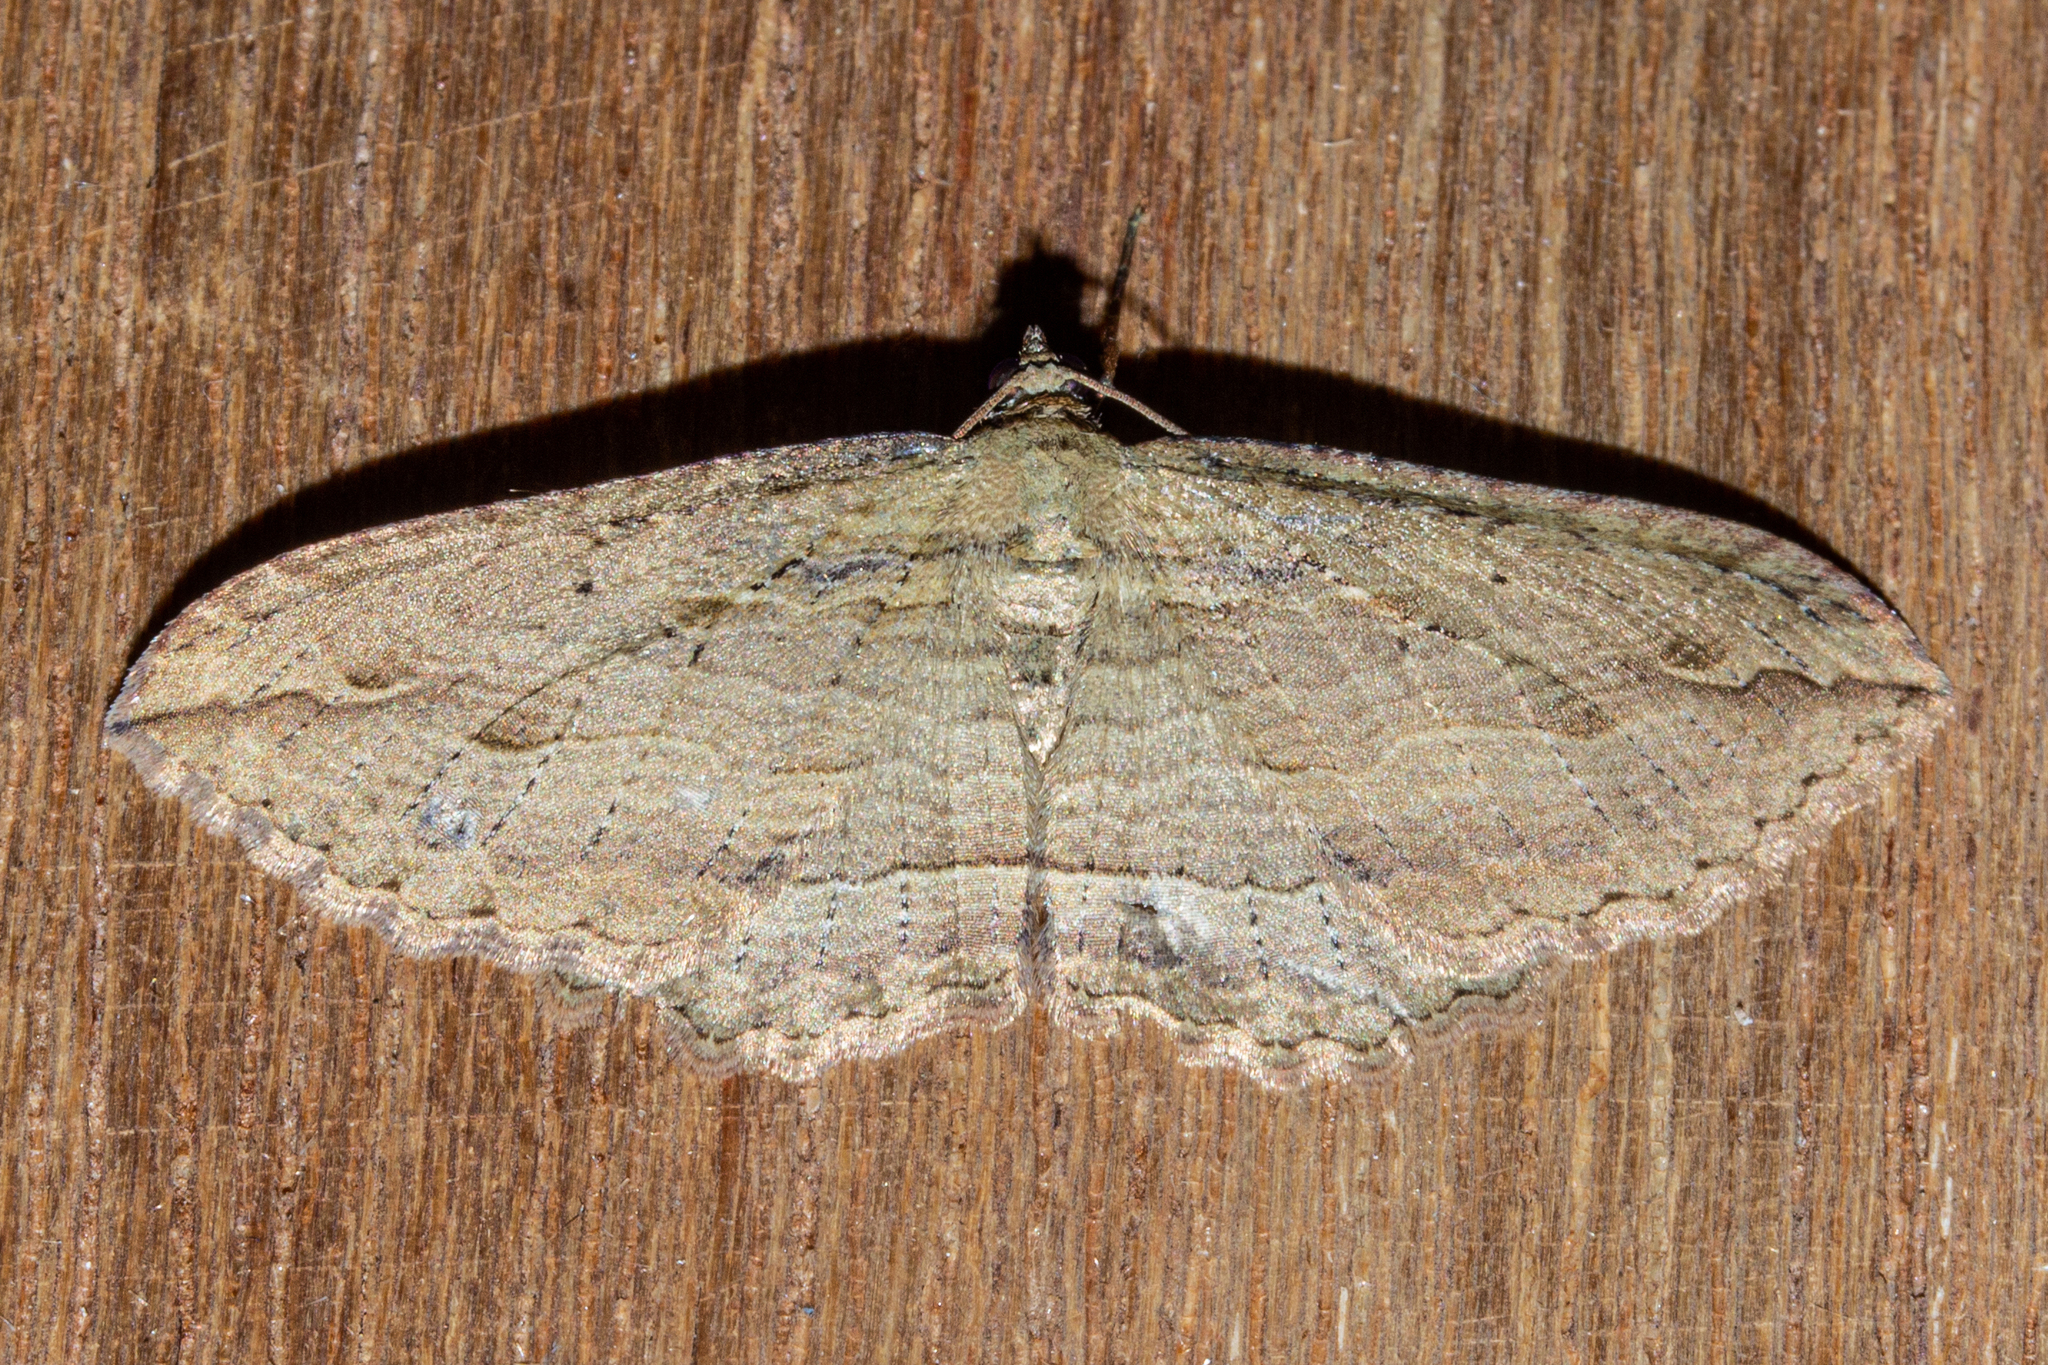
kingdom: Animalia
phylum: Arthropoda
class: Insecta
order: Lepidoptera
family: Geometridae
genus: Austrocidaria
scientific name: Austrocidaria gobiata
